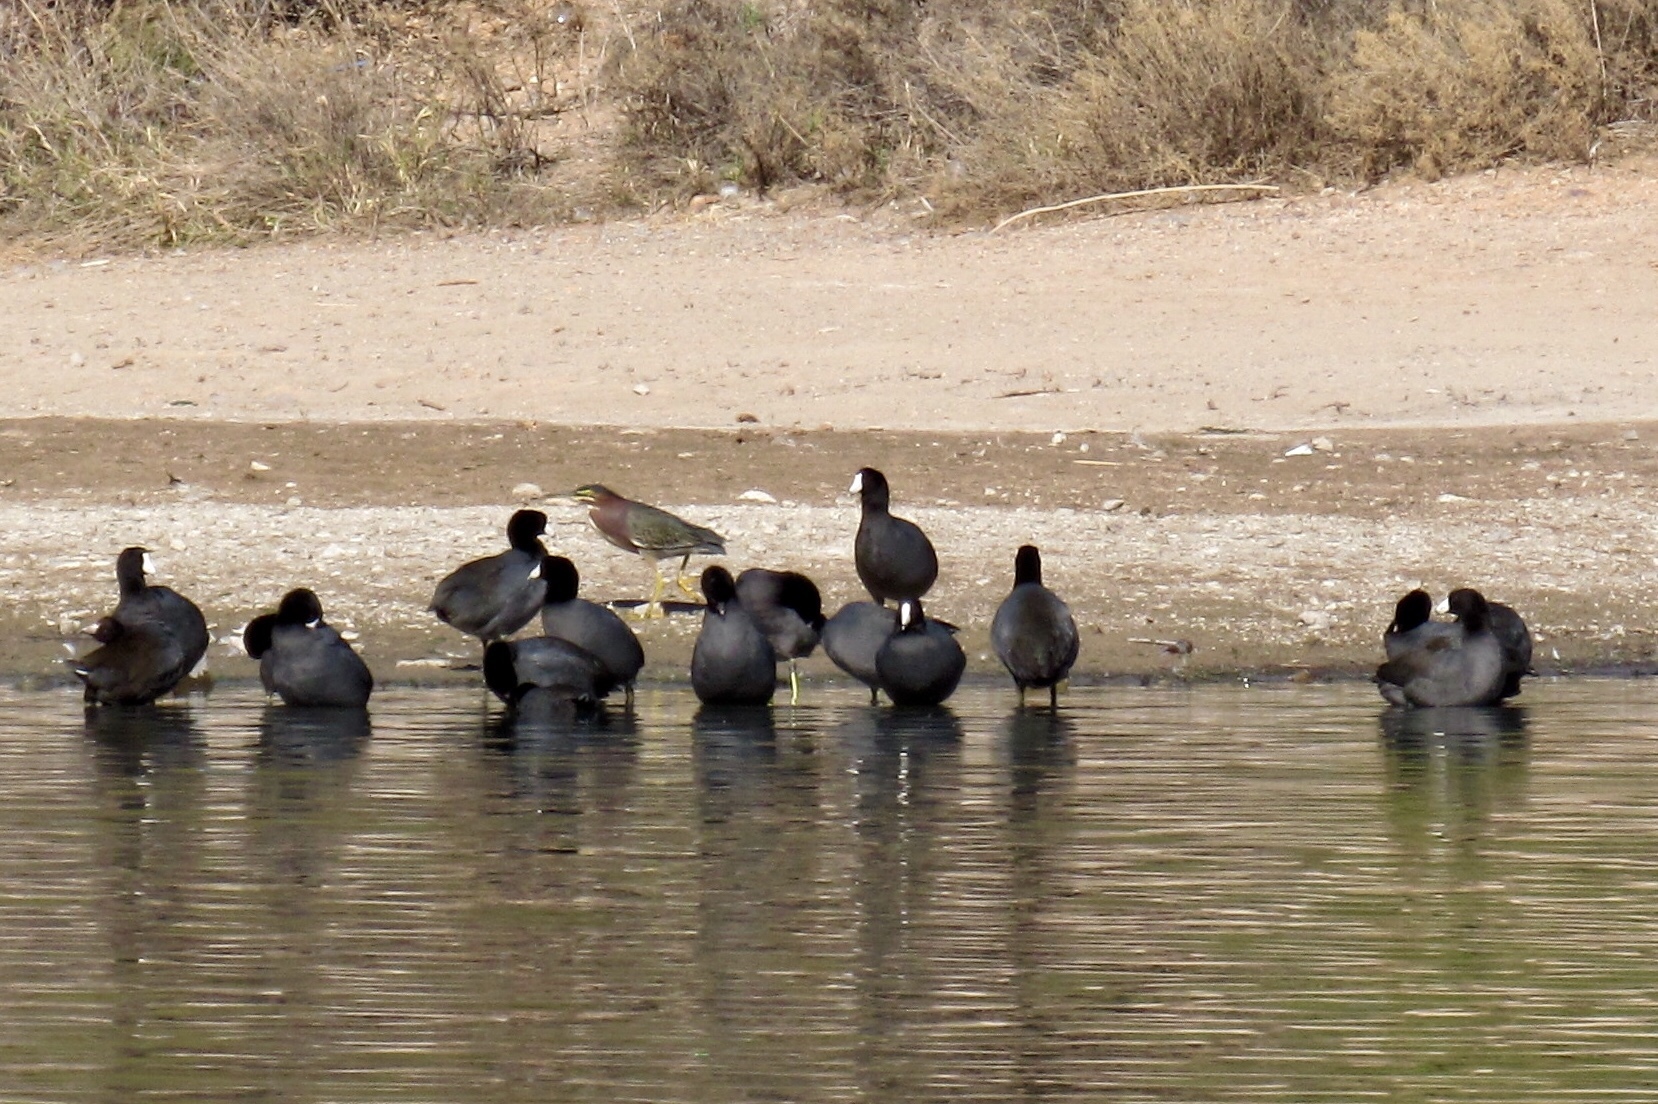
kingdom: Animalia
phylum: Chordata
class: Aves
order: Pelecaniformes
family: Ardeidae
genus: Butorides
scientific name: Butorides virescens
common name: Green heron
